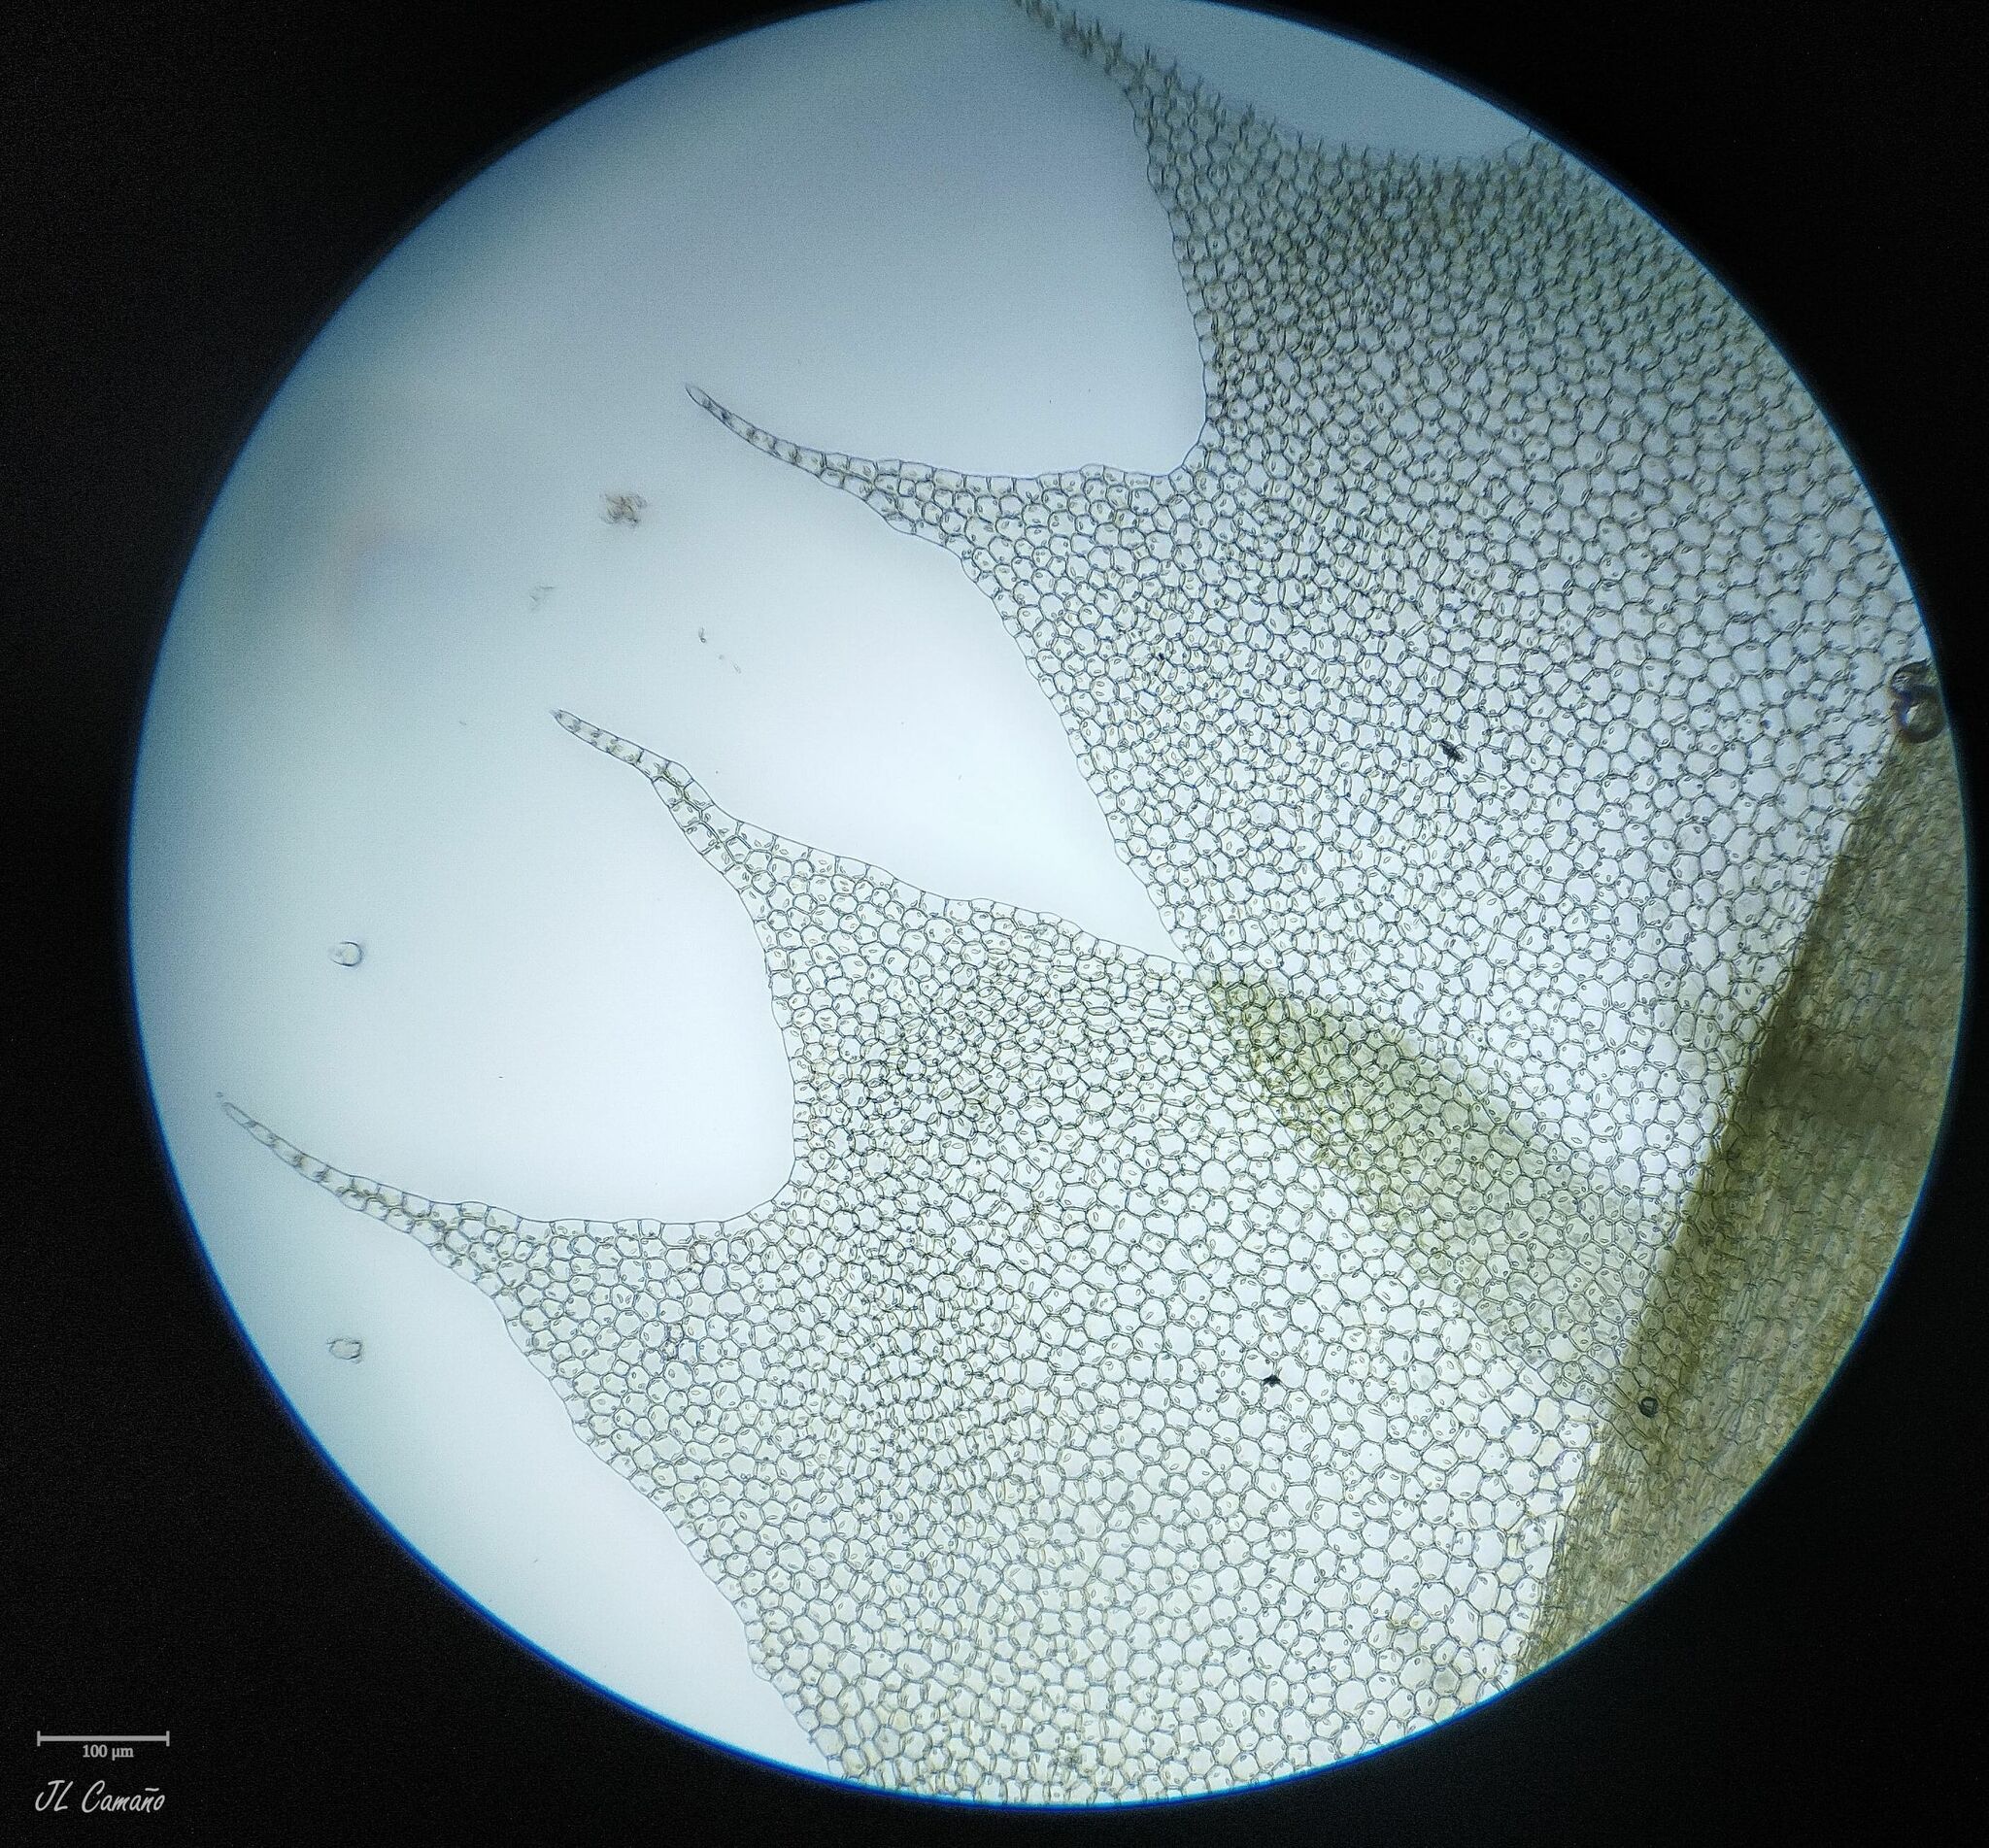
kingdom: Plantae
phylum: Marchantiophyta
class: Jungermanniopsida
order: Jungermanniales
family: Lophocoleaceae
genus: Lophocolea
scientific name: Lophocolea bidentata
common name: Bifid crestwort
